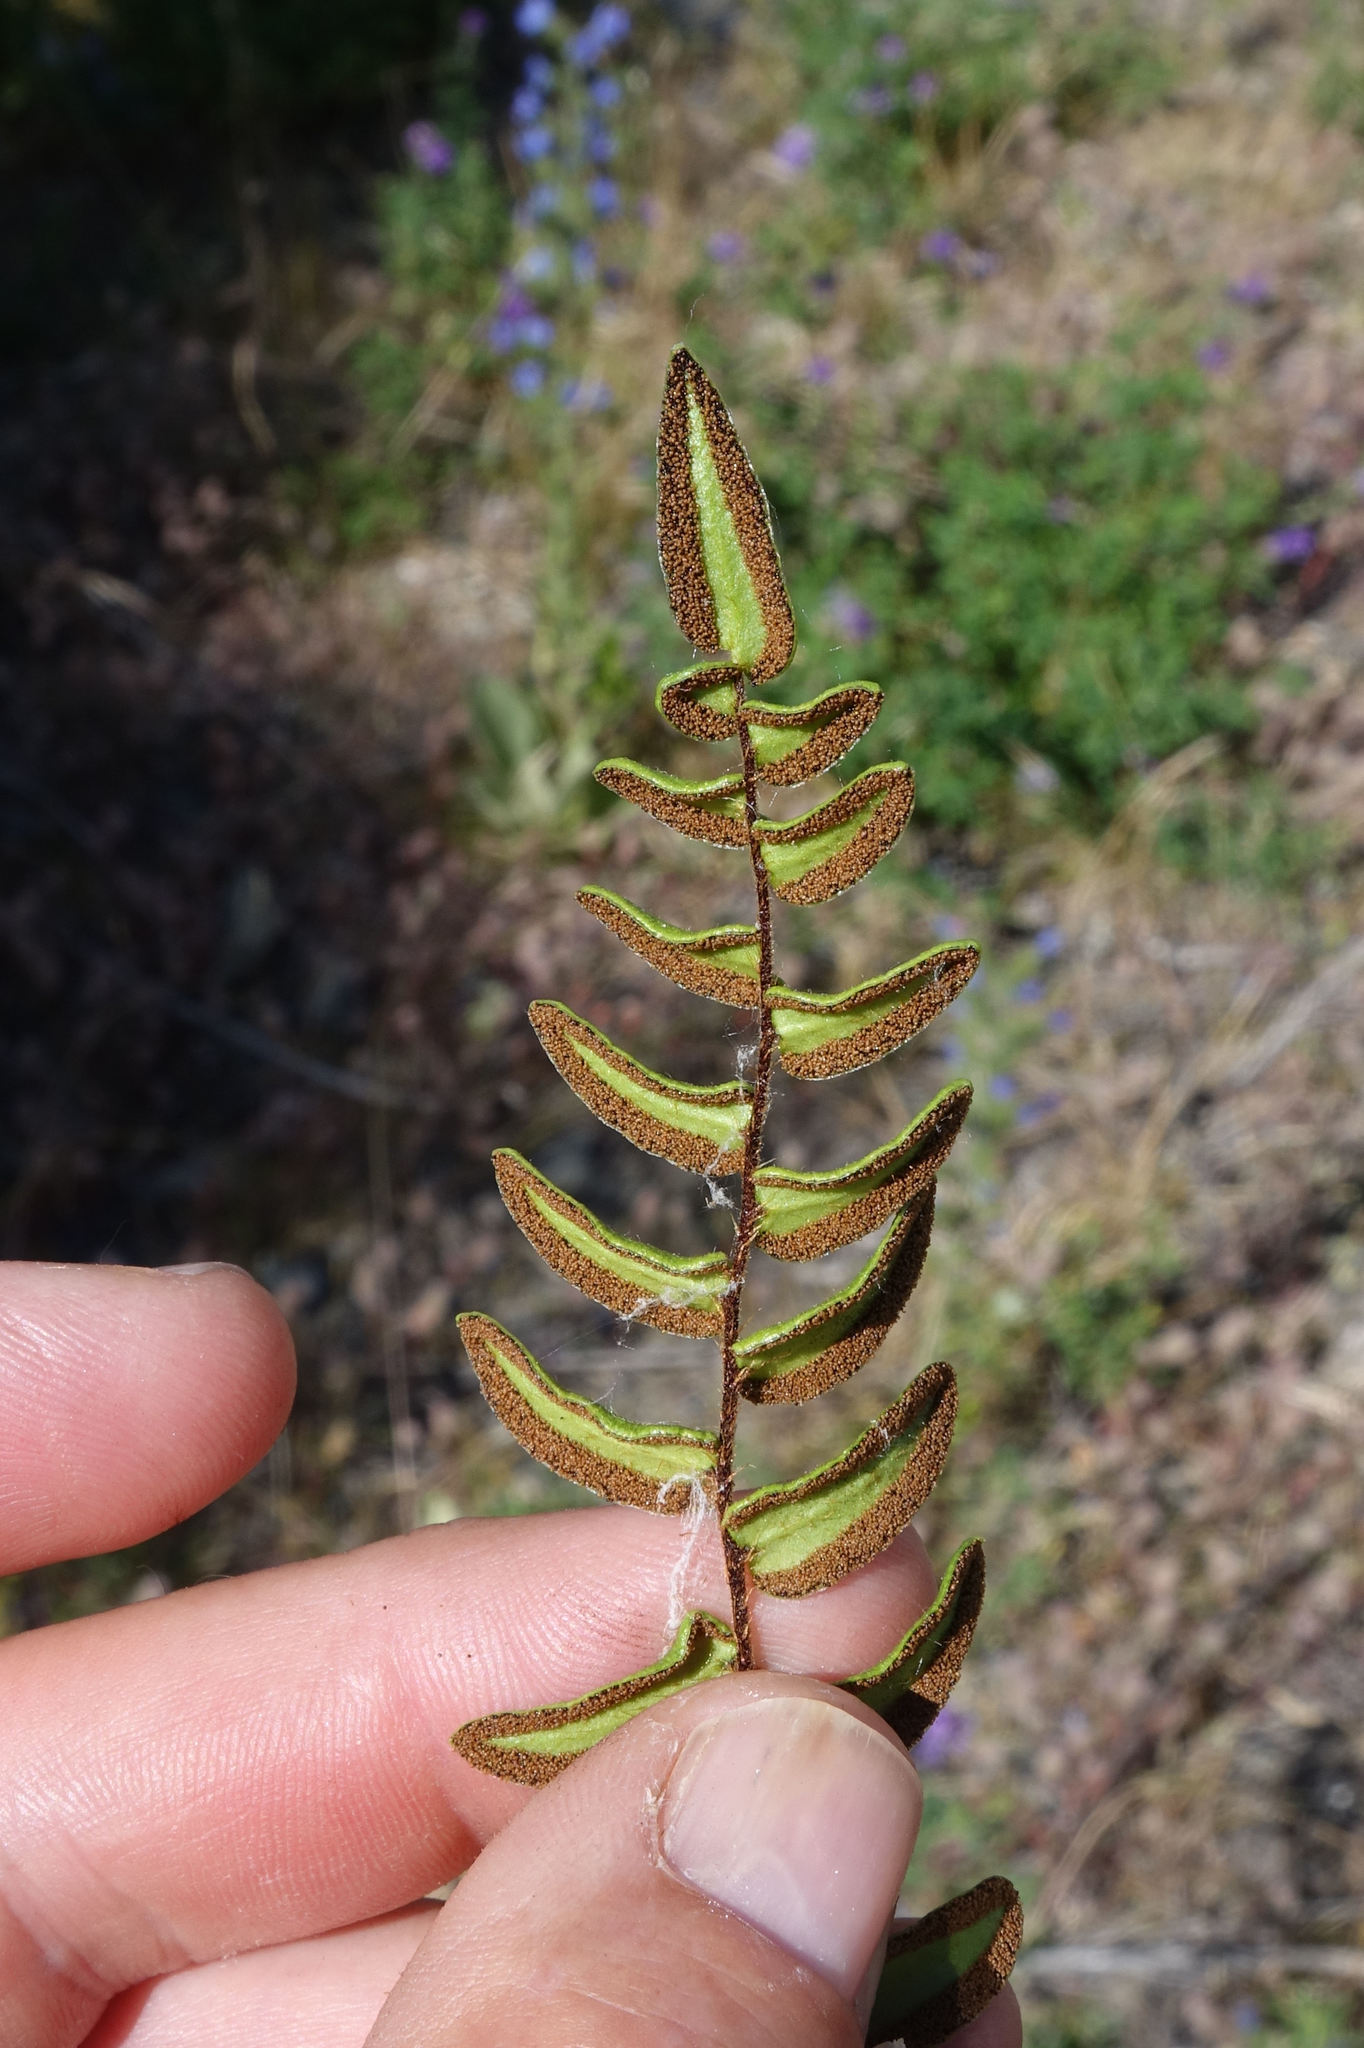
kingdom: Plantae
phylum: Tracheophyta
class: Polypodiopsida
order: Polypodiales
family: Pteridaceae
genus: Pellaea
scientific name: Pellaea calidirupium
